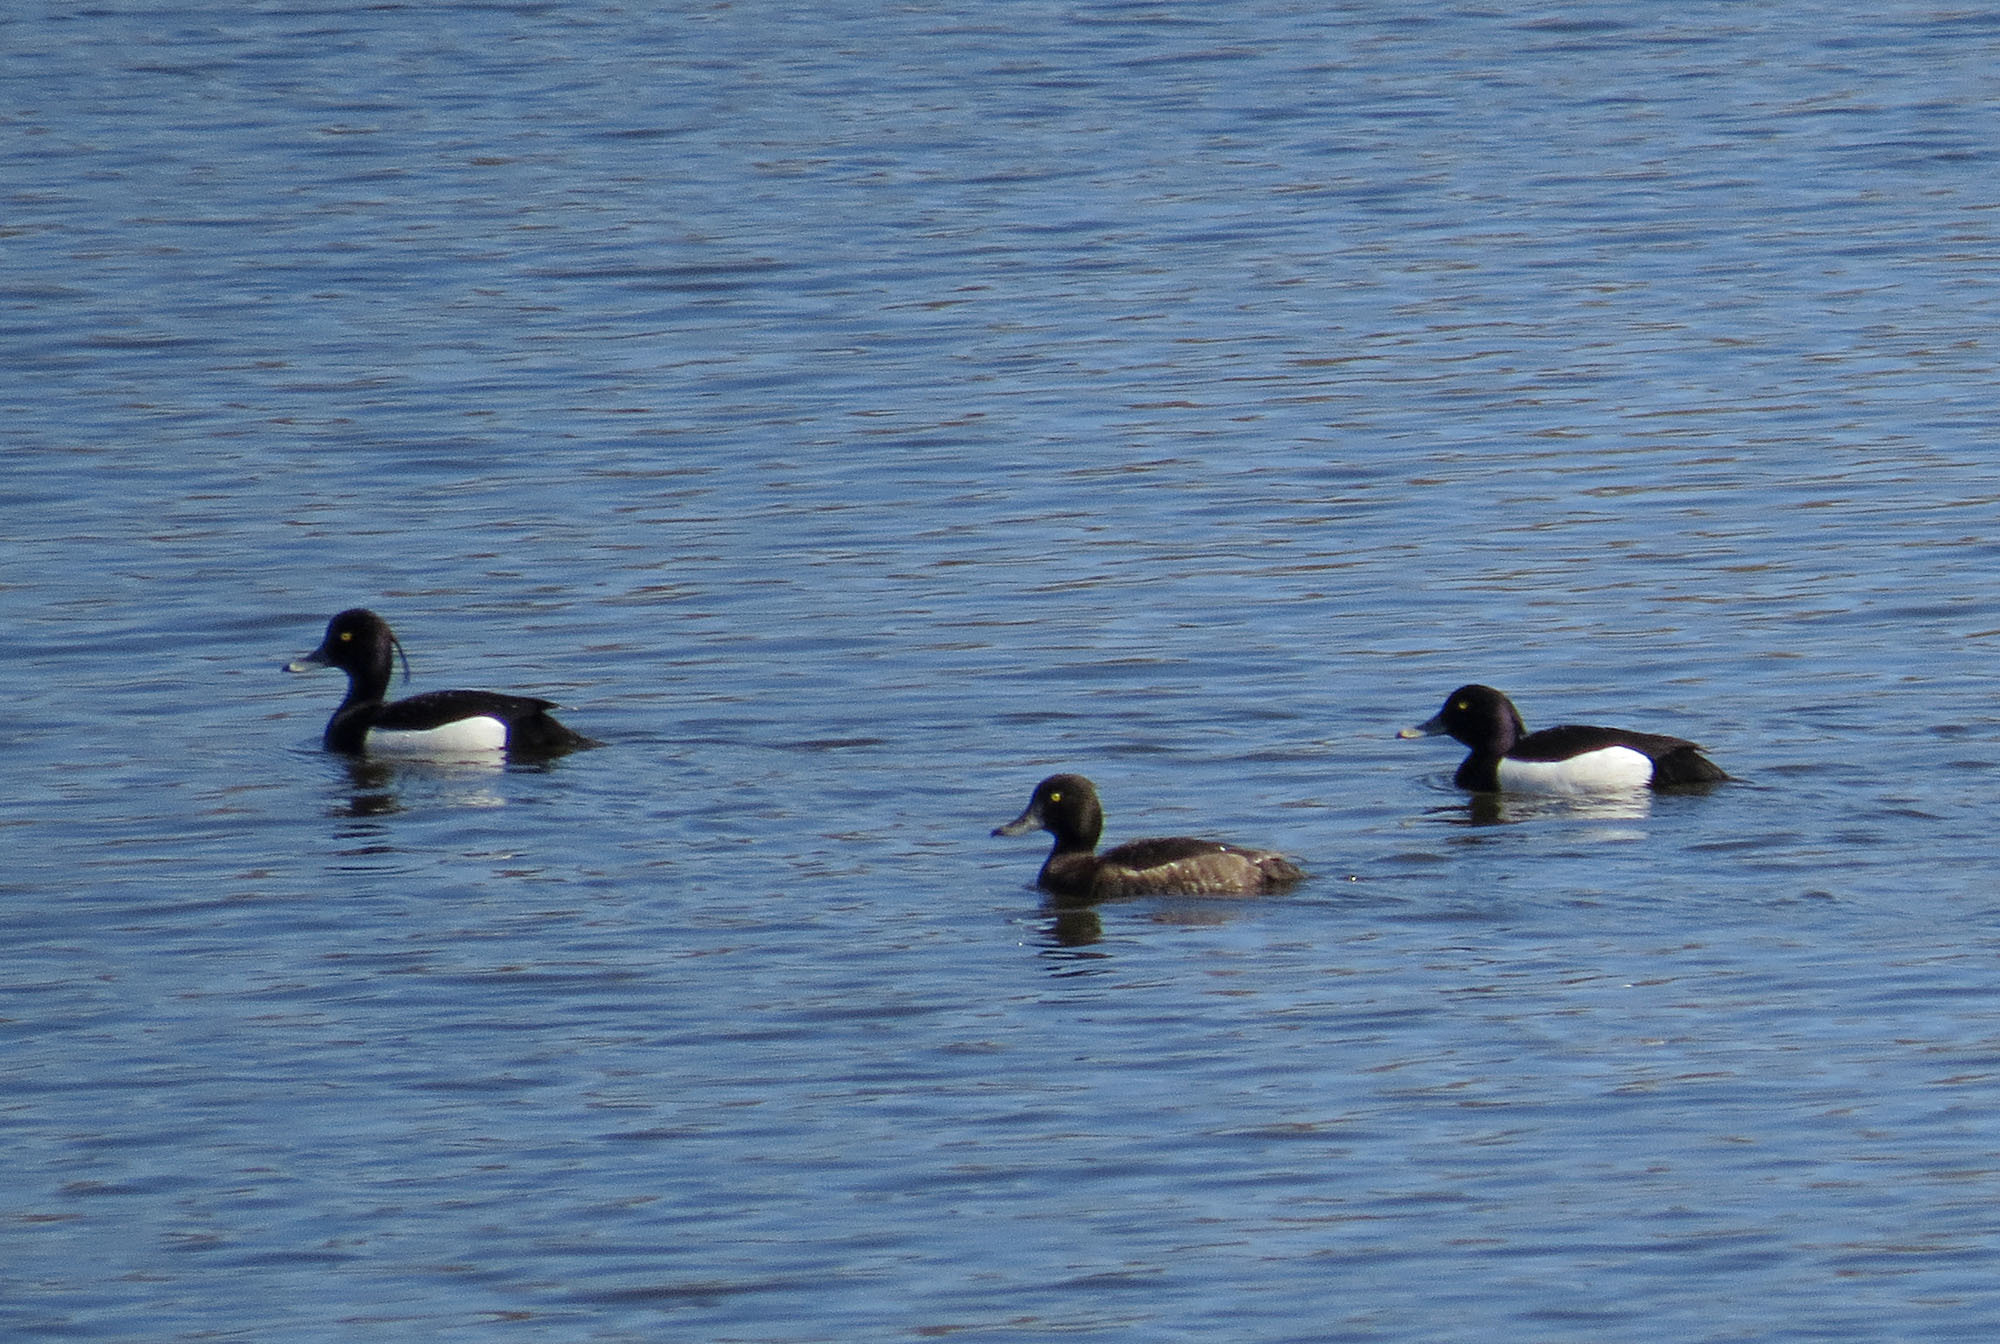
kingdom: Animalia
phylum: Chordata
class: Aves
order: Anseriformes
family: Anatidae
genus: Aythya
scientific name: Aythya fuligula
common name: Tufted duck
